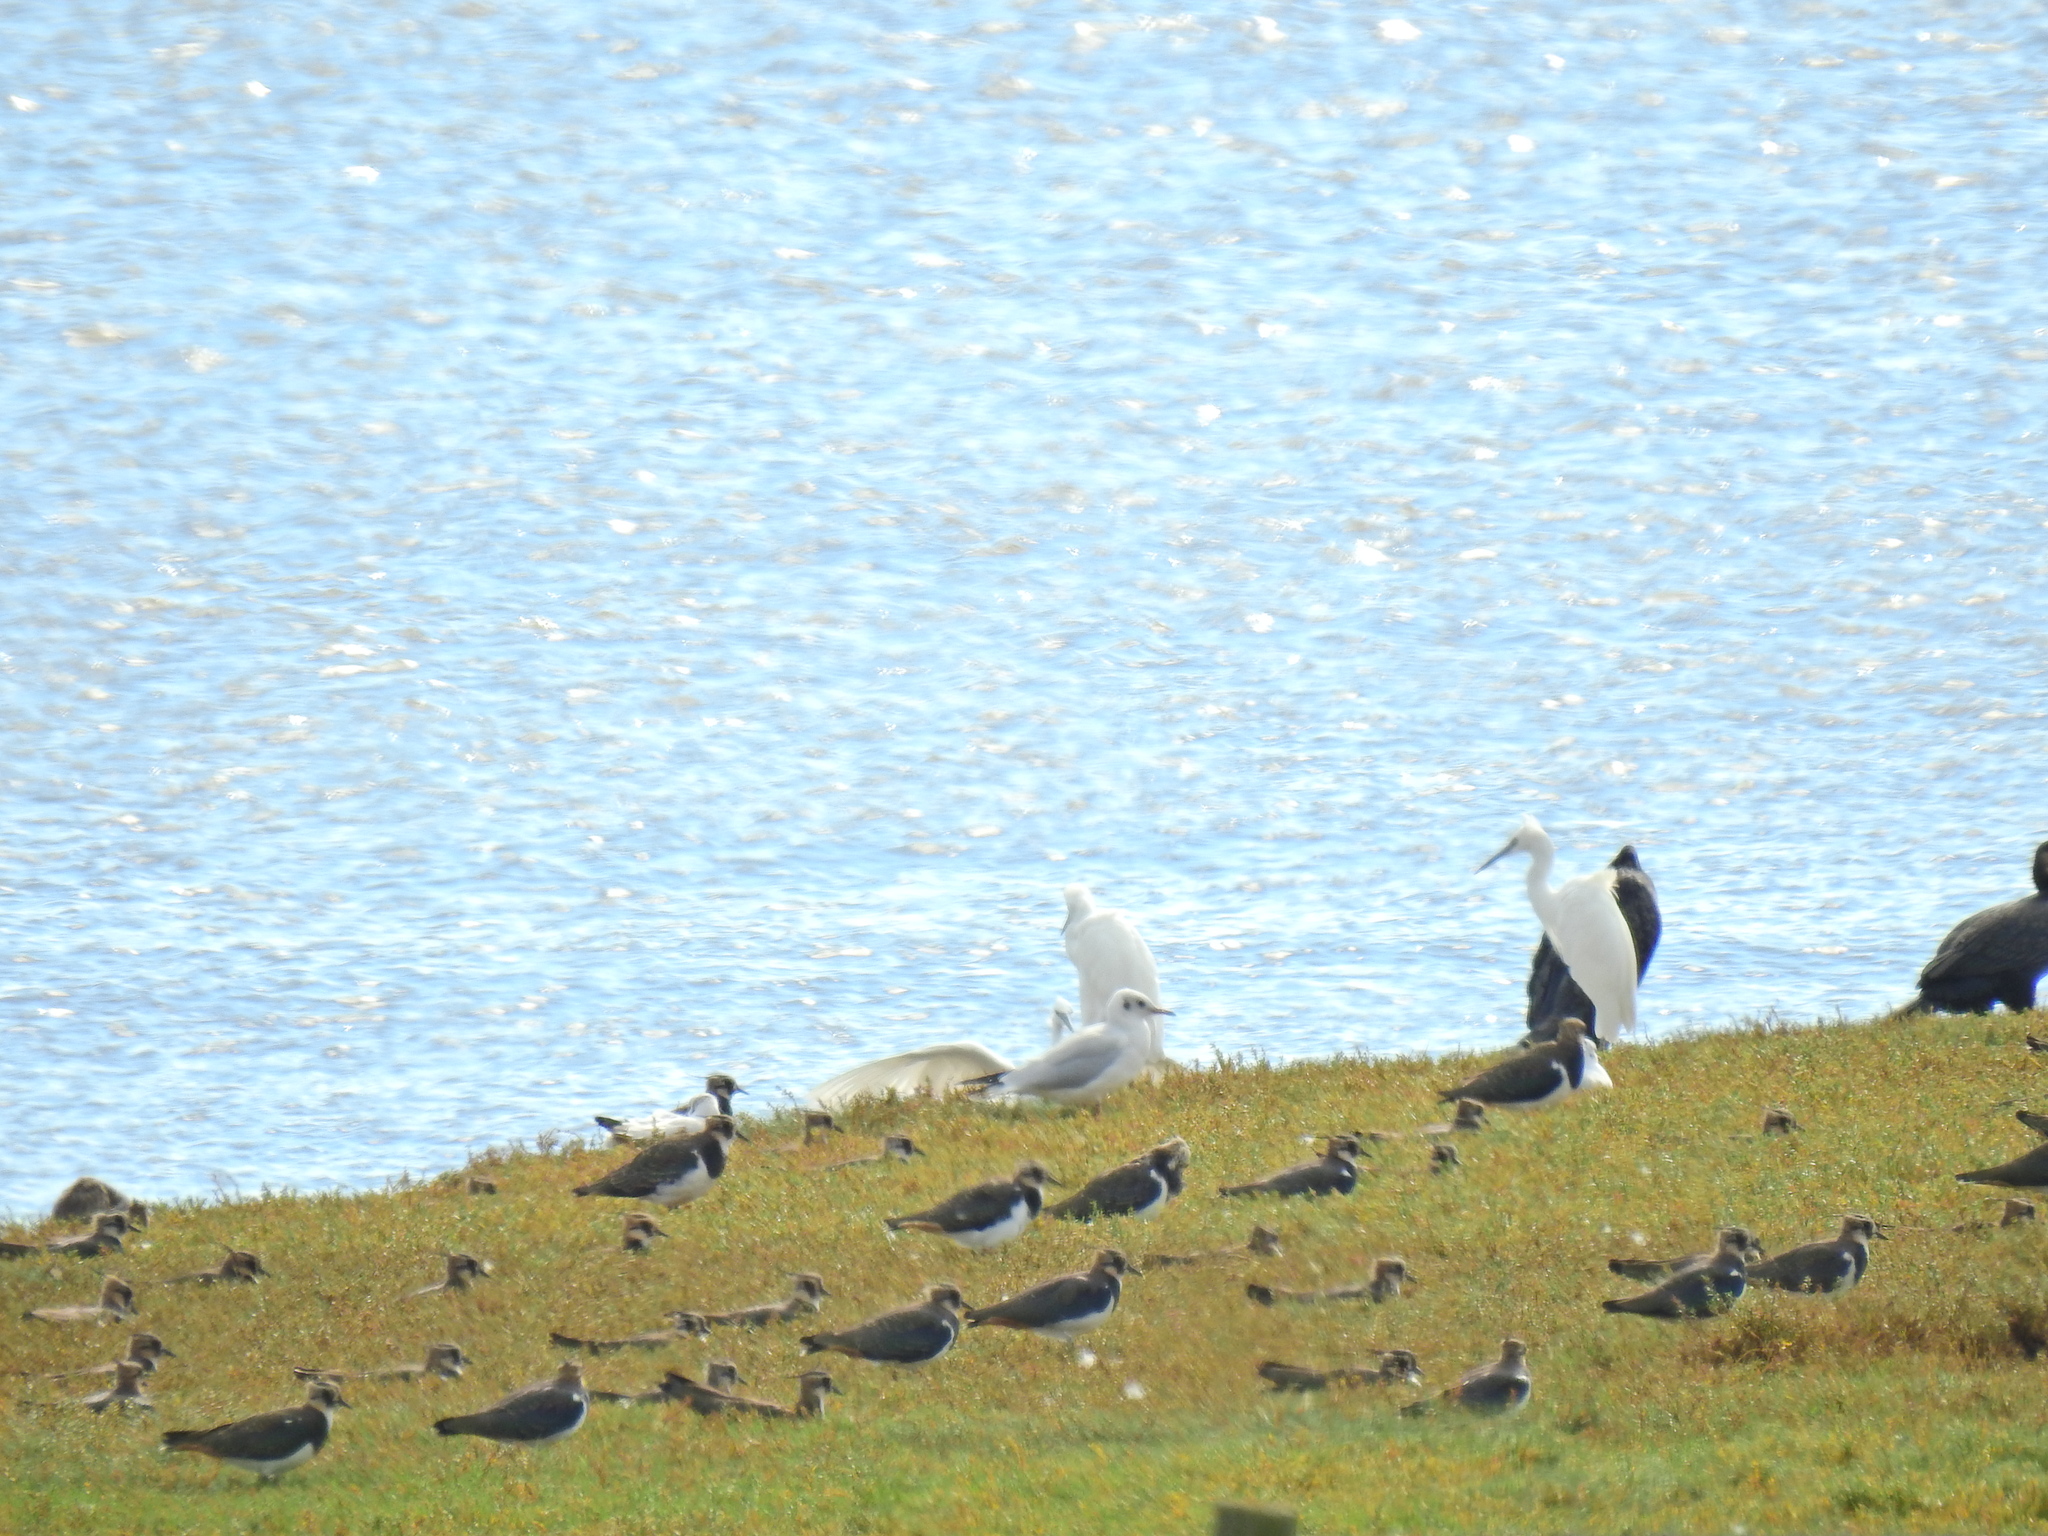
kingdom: Animalia
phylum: Chordata
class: Aves
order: Pelecaniformes
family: Ardeidae
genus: Egretta
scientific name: Egretta garzetta
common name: Little egret
